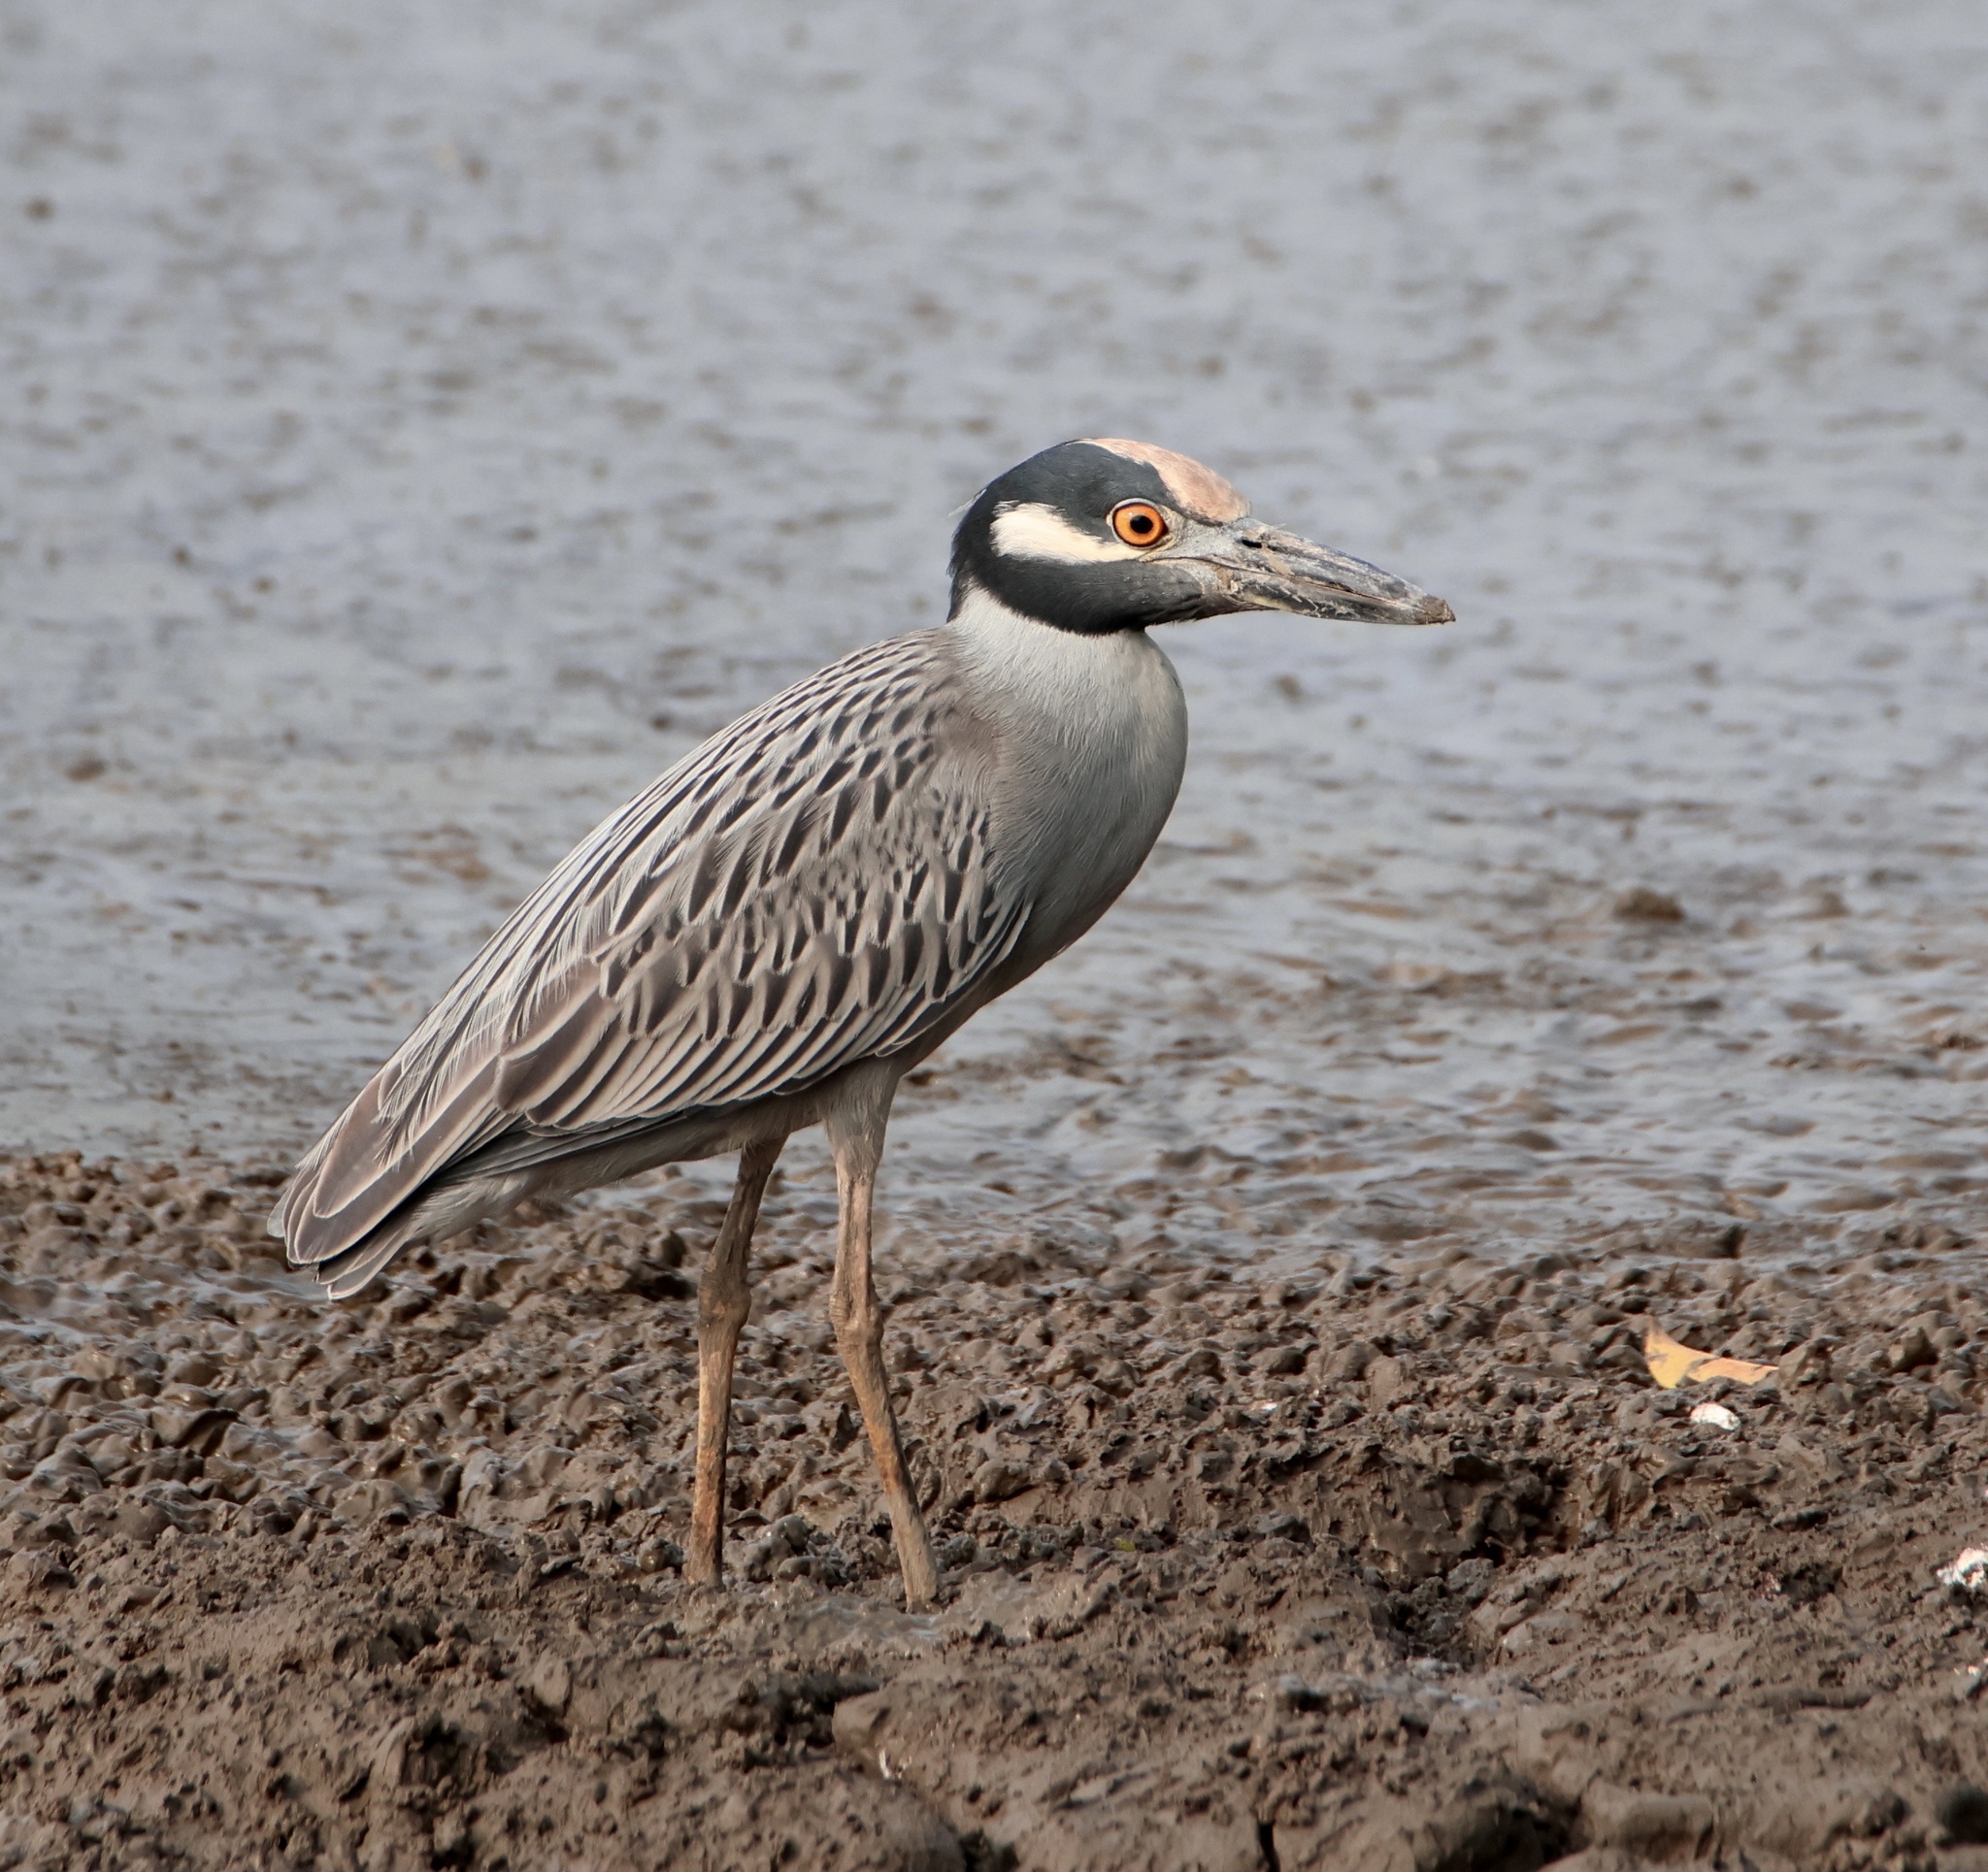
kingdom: Animalia
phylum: Chordata
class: Aves
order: Pelecaniformes
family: Ardeidae
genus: Nyctanassa
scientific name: Nyctanassa violacea
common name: Yellow-crowned night heron
